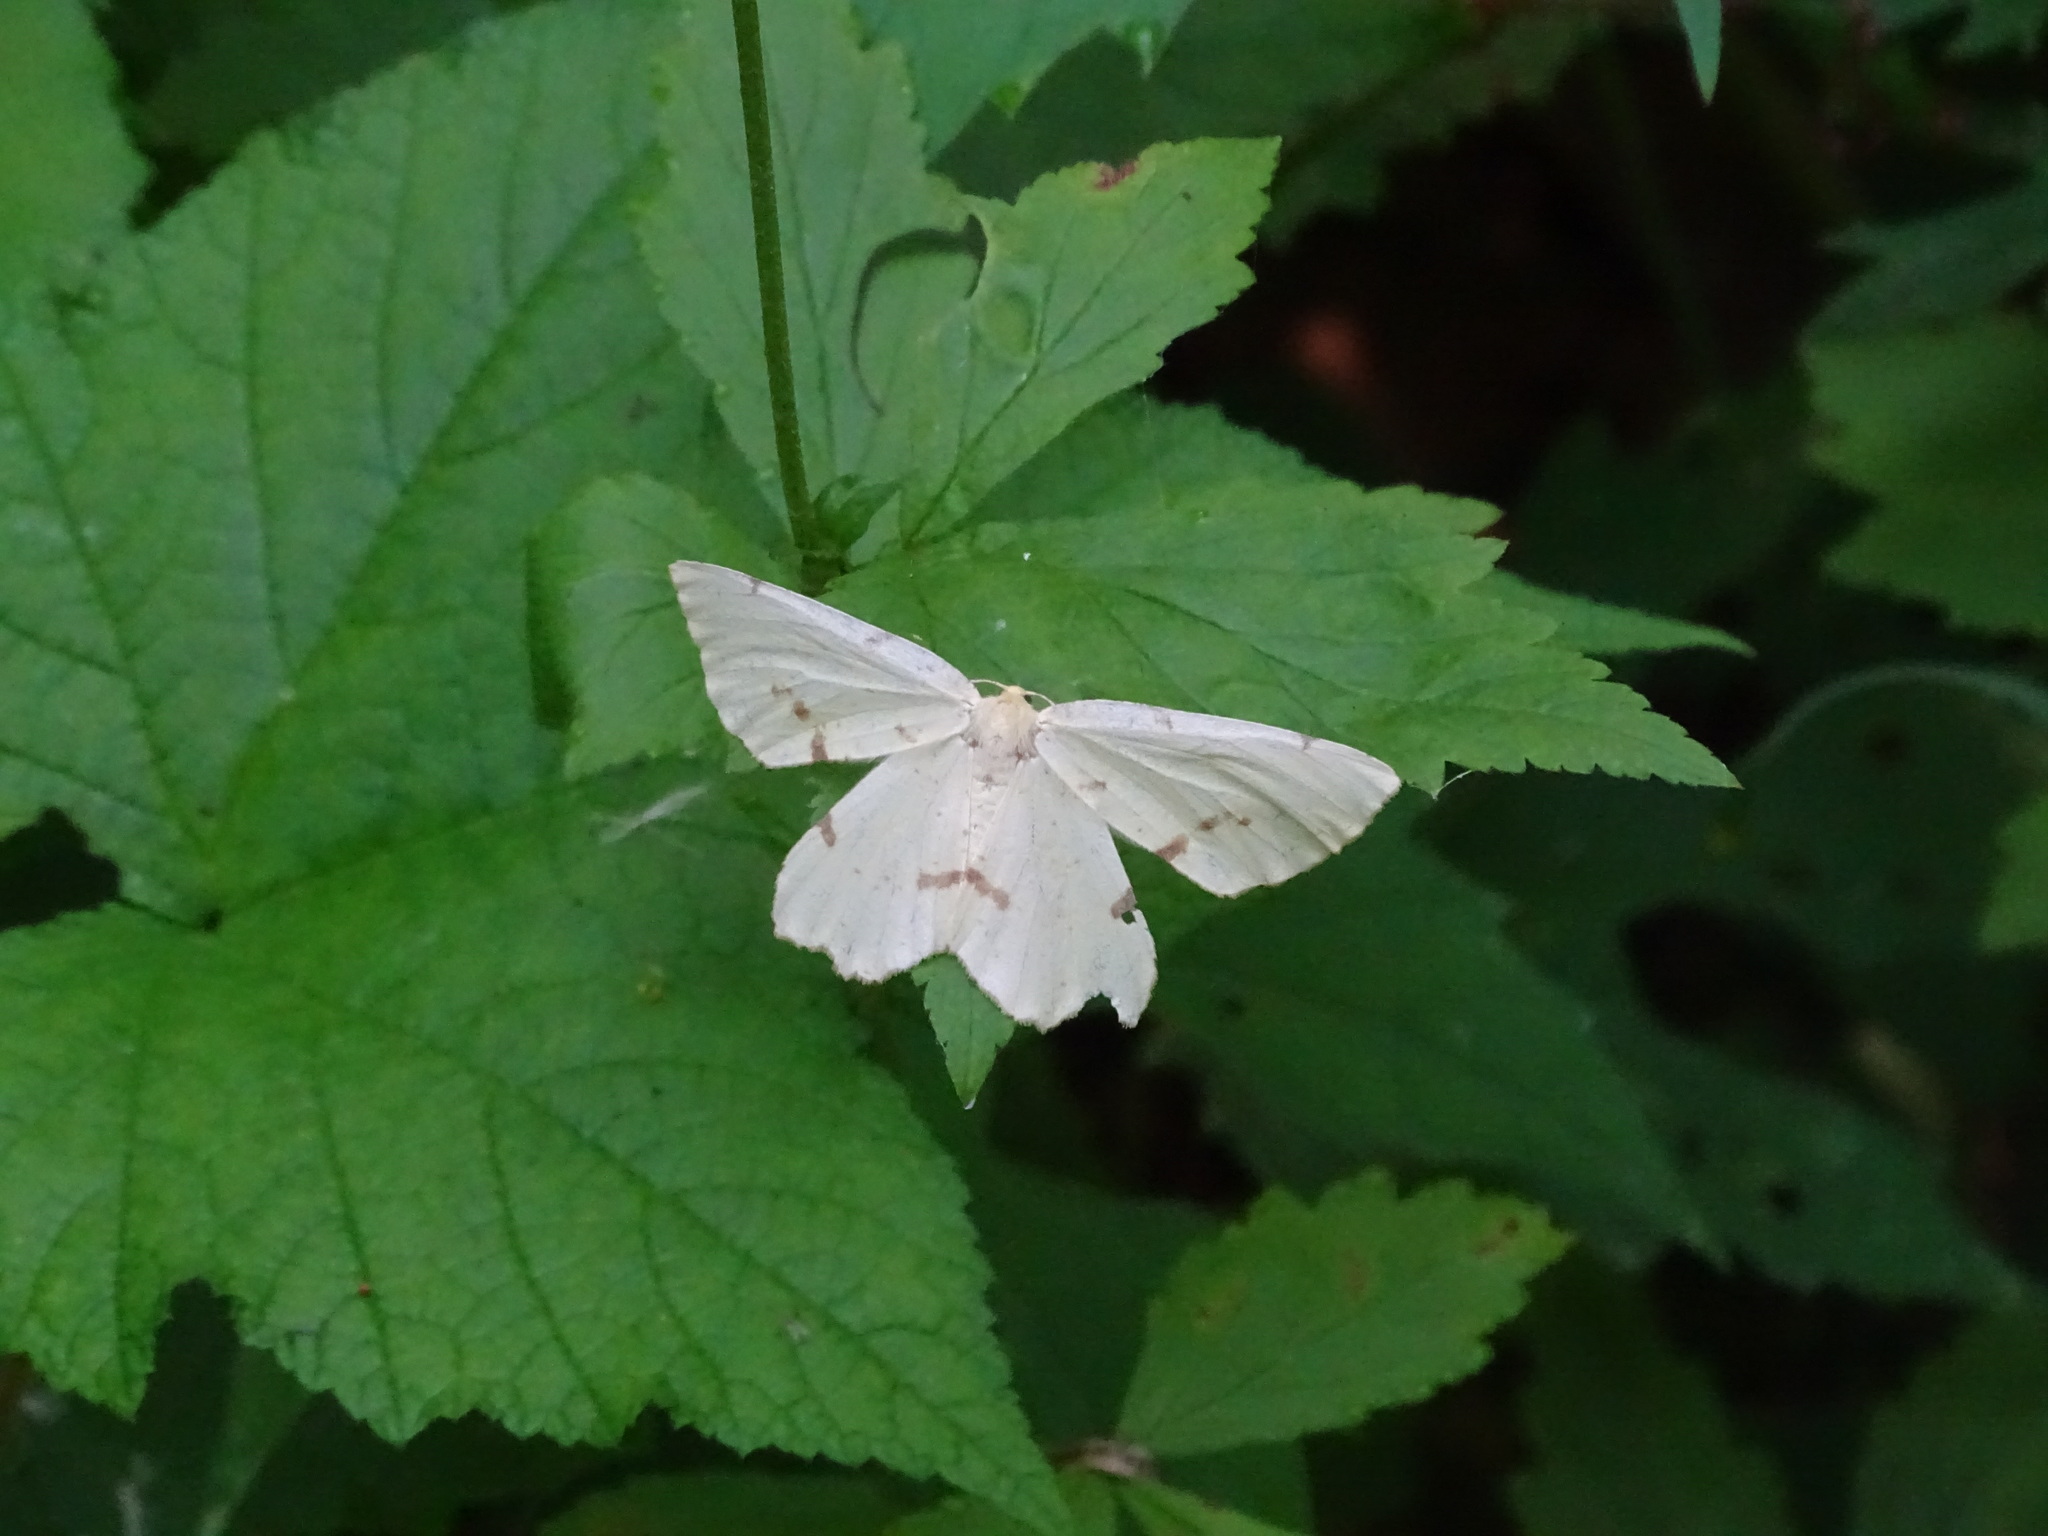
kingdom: Animalia
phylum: Arthropoda
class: Insecta
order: Lepidoptera
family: Geometridae
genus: Xanthotype
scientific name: Xanthotype
